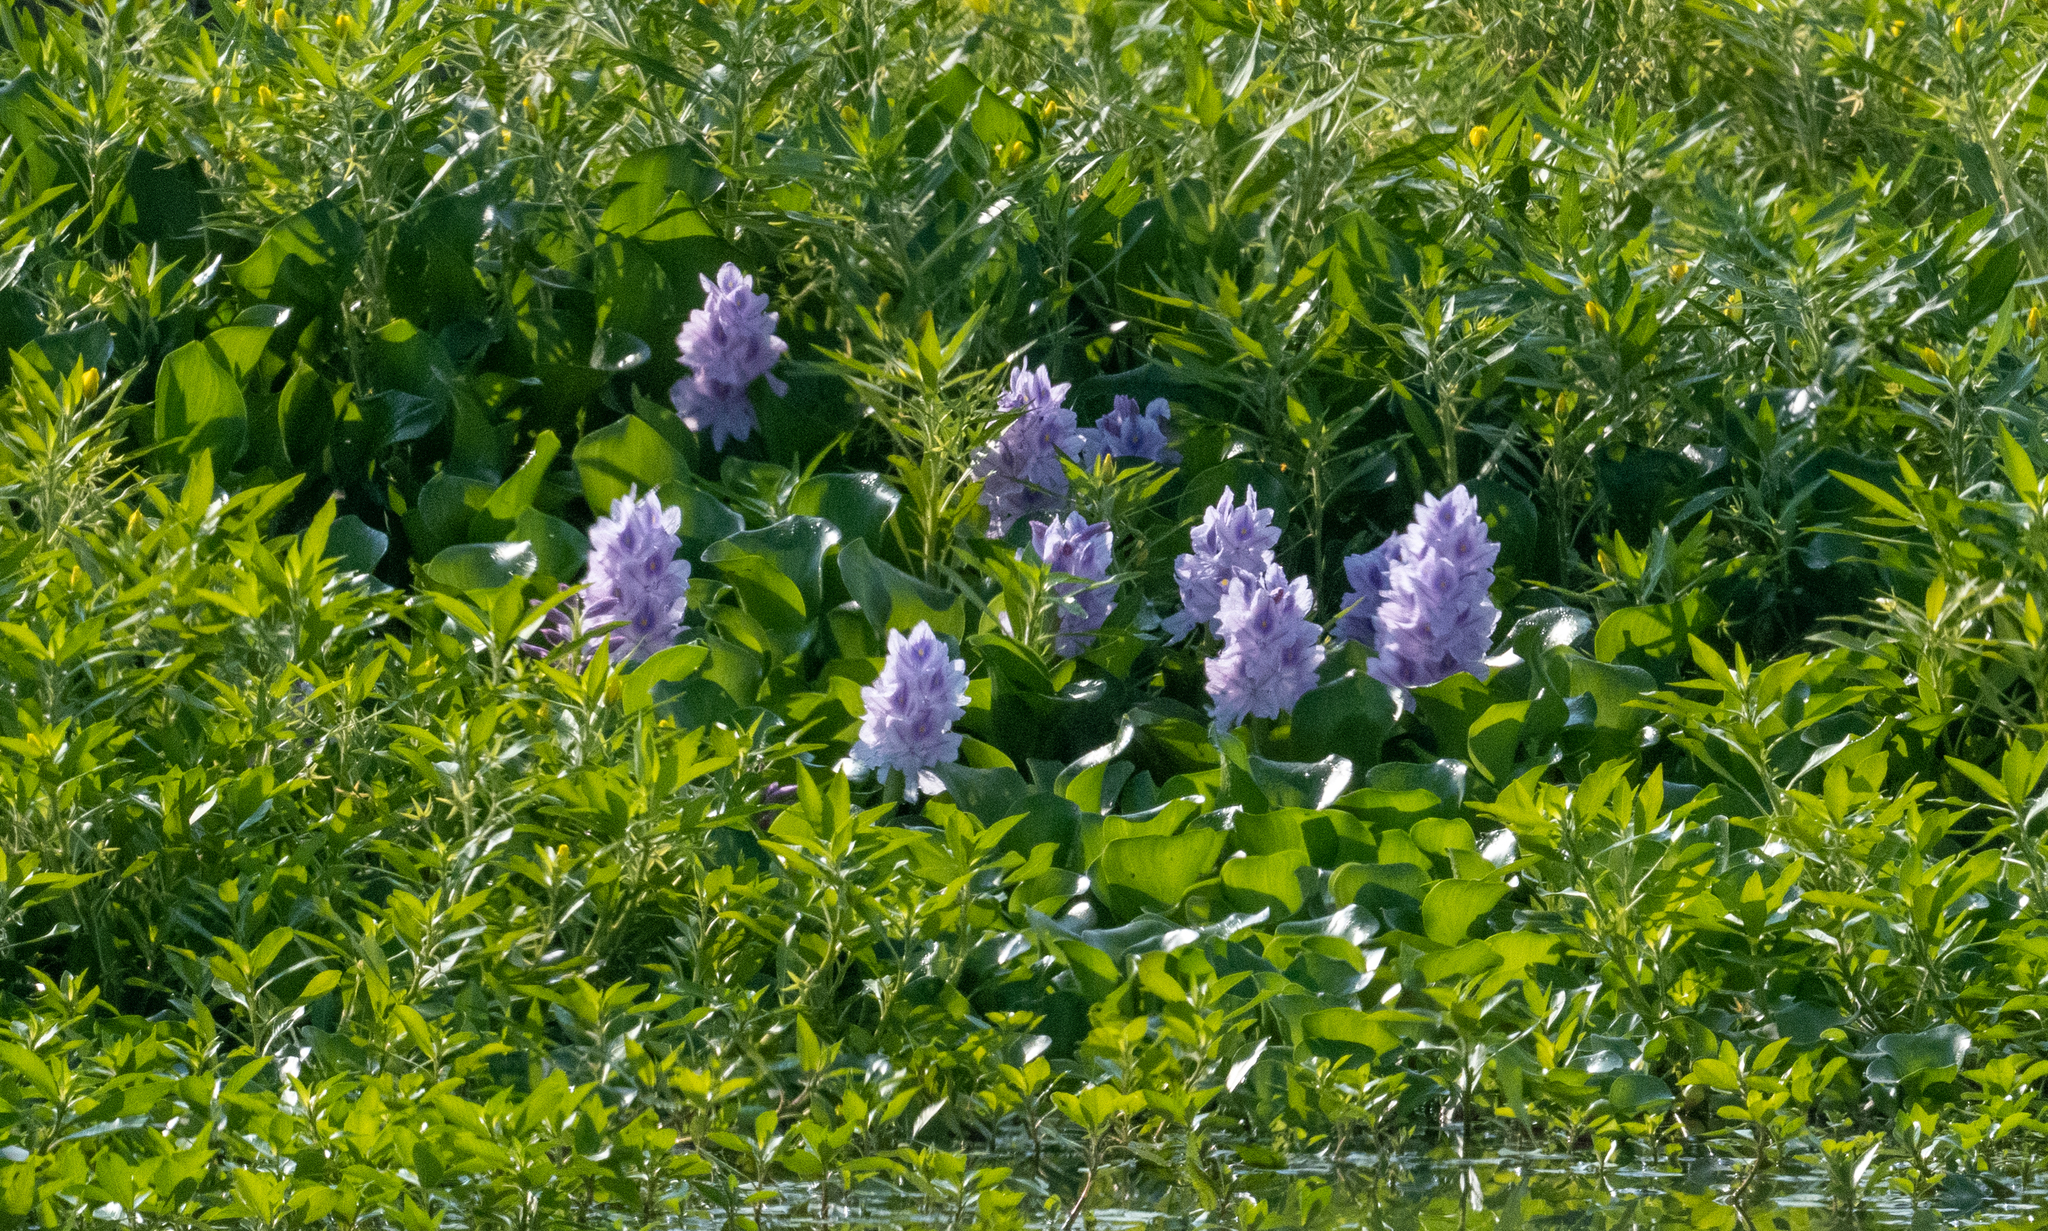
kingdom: Plantae
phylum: Tracheophyta
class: Liliopsida
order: Commelinales
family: Pontederiaceae
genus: Pontederia
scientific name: Pontederia crassipes
